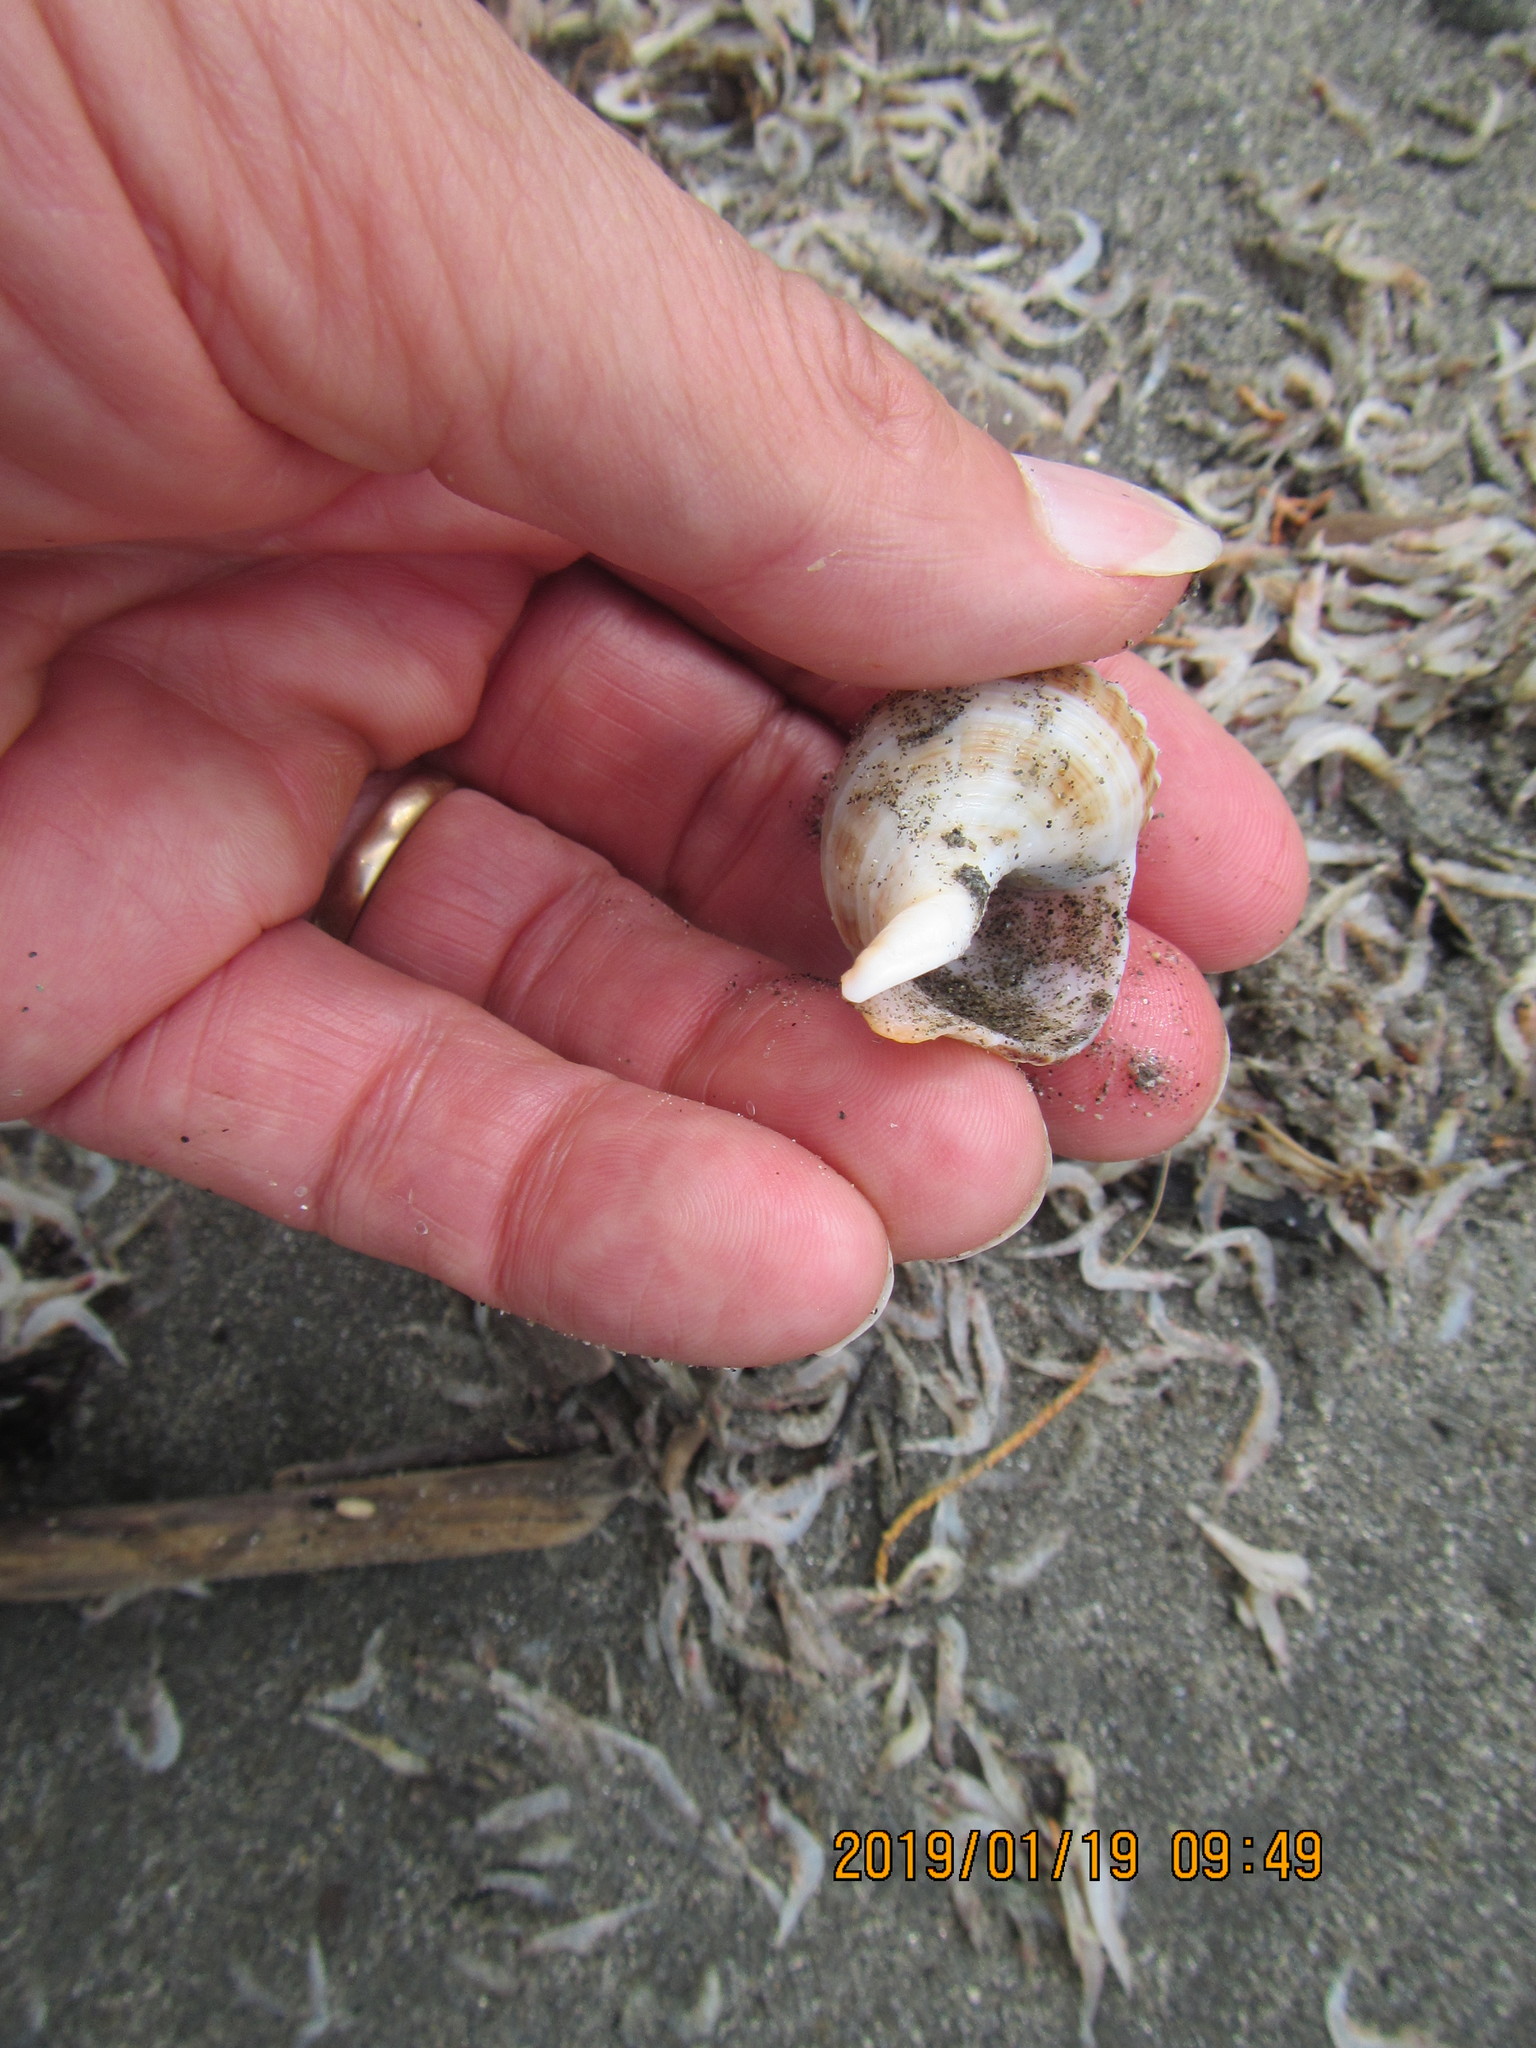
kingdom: Animalia
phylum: Mollusca
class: Gastropoda
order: Neogastropoda
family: Prosiphonidae
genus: Austrofusus
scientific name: Austrofusus glans
